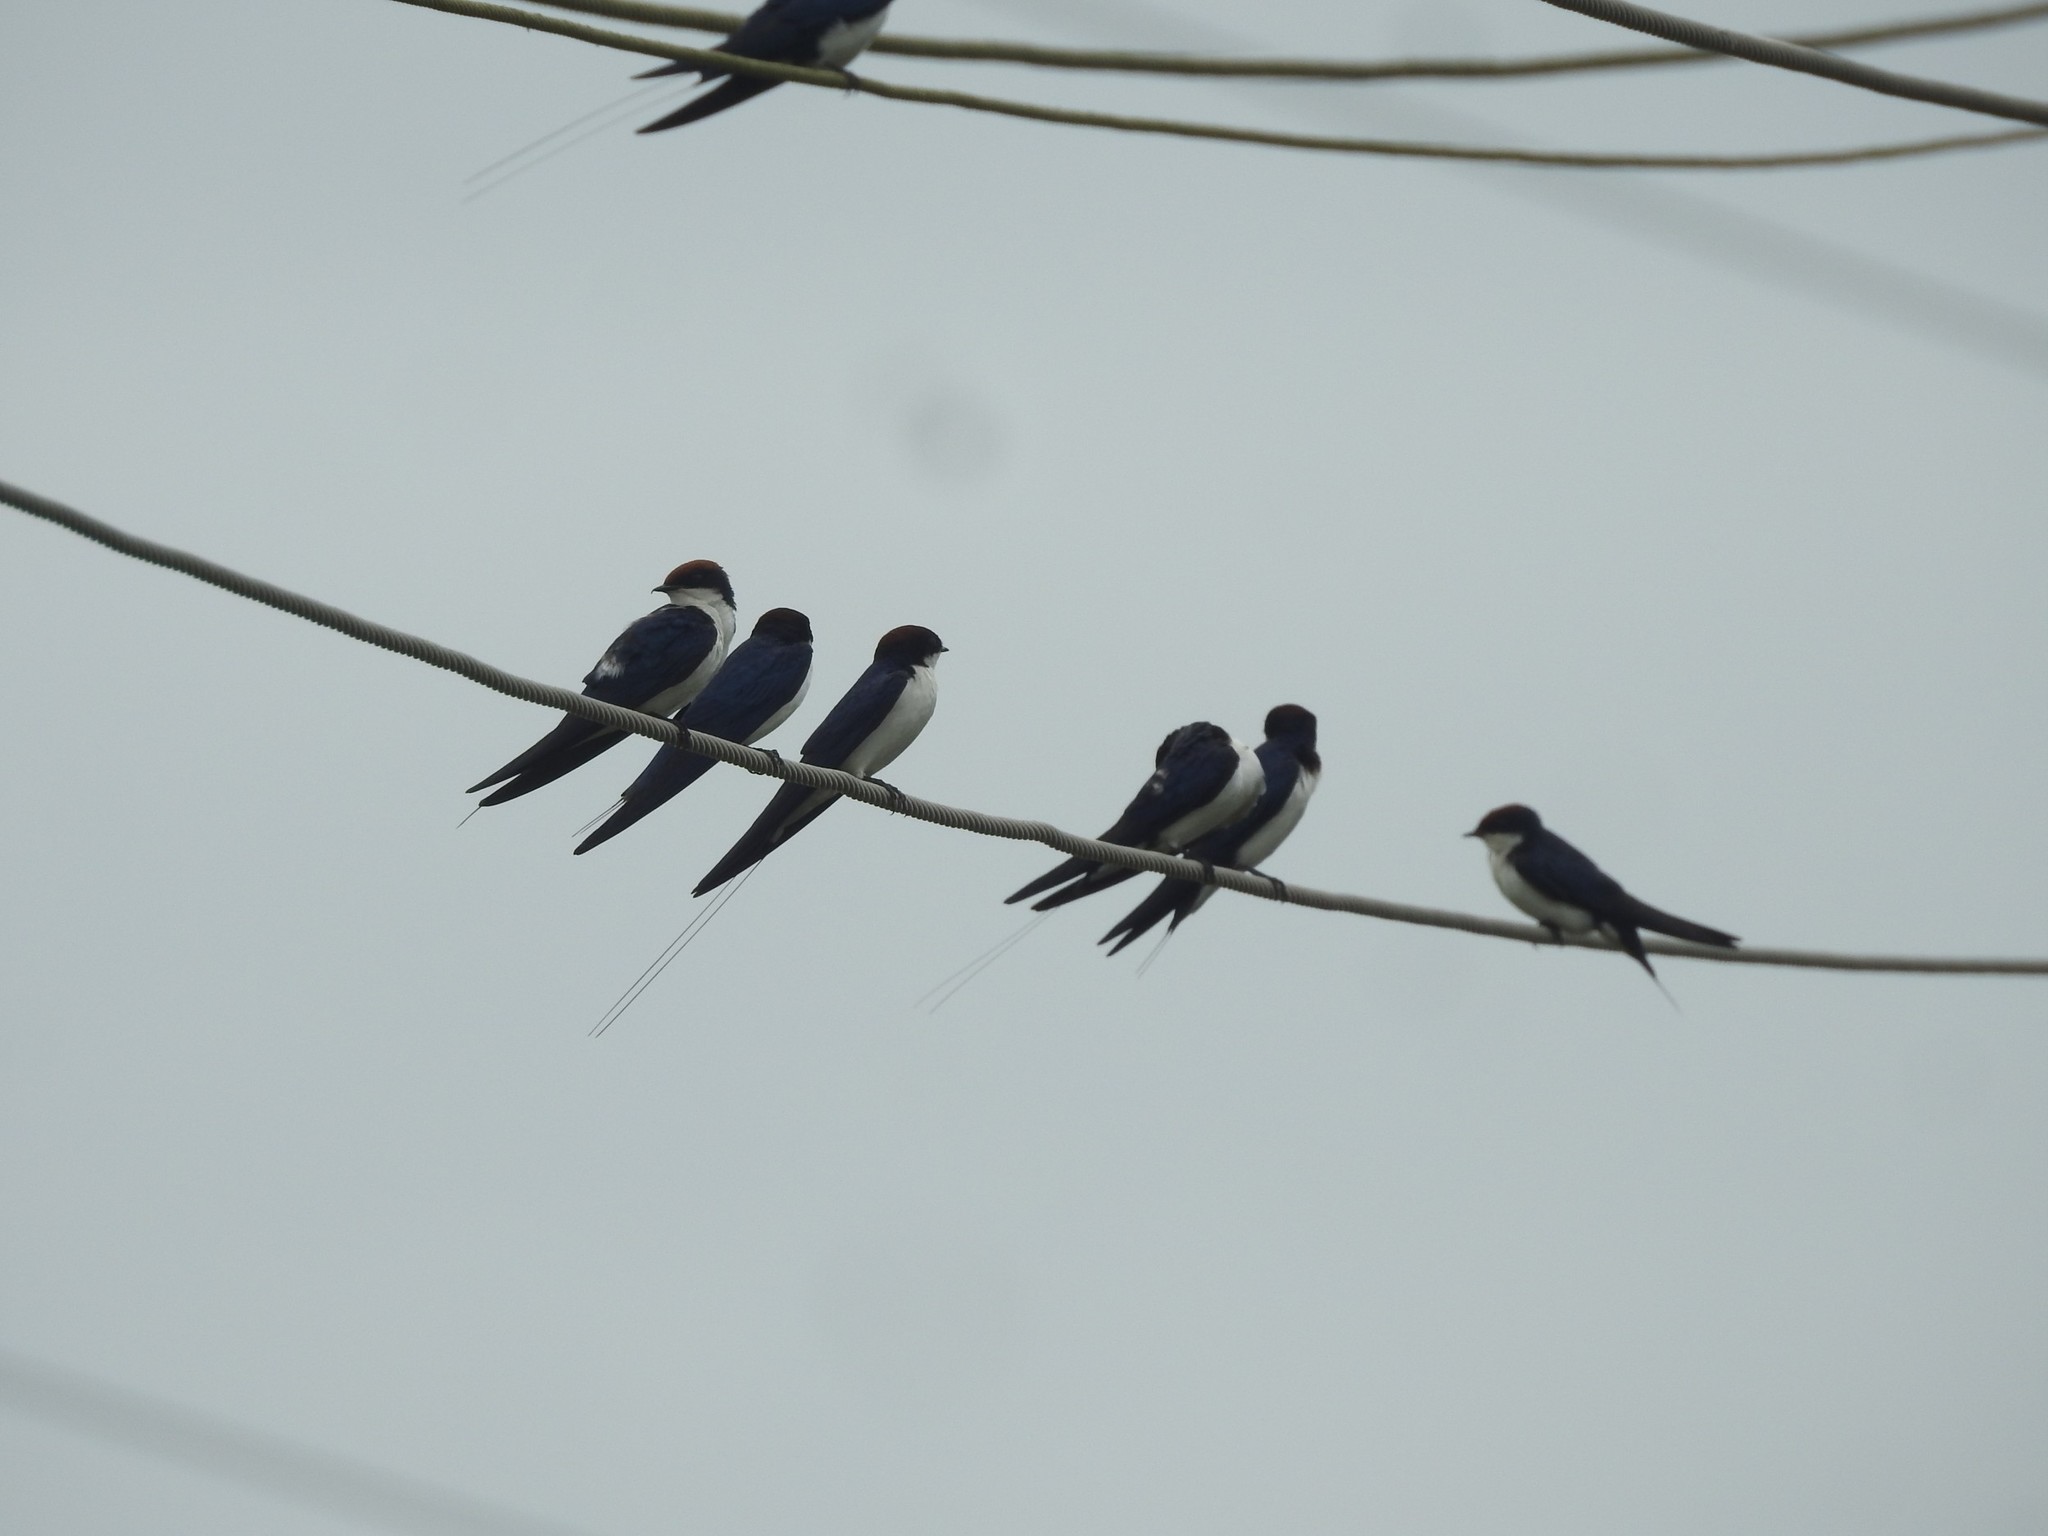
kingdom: Animalia
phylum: Chordata
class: Aves
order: Passeriformes
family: Hirundinidae
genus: Hirundo
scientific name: Hirundo smithii
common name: Wire-tailed swallow
